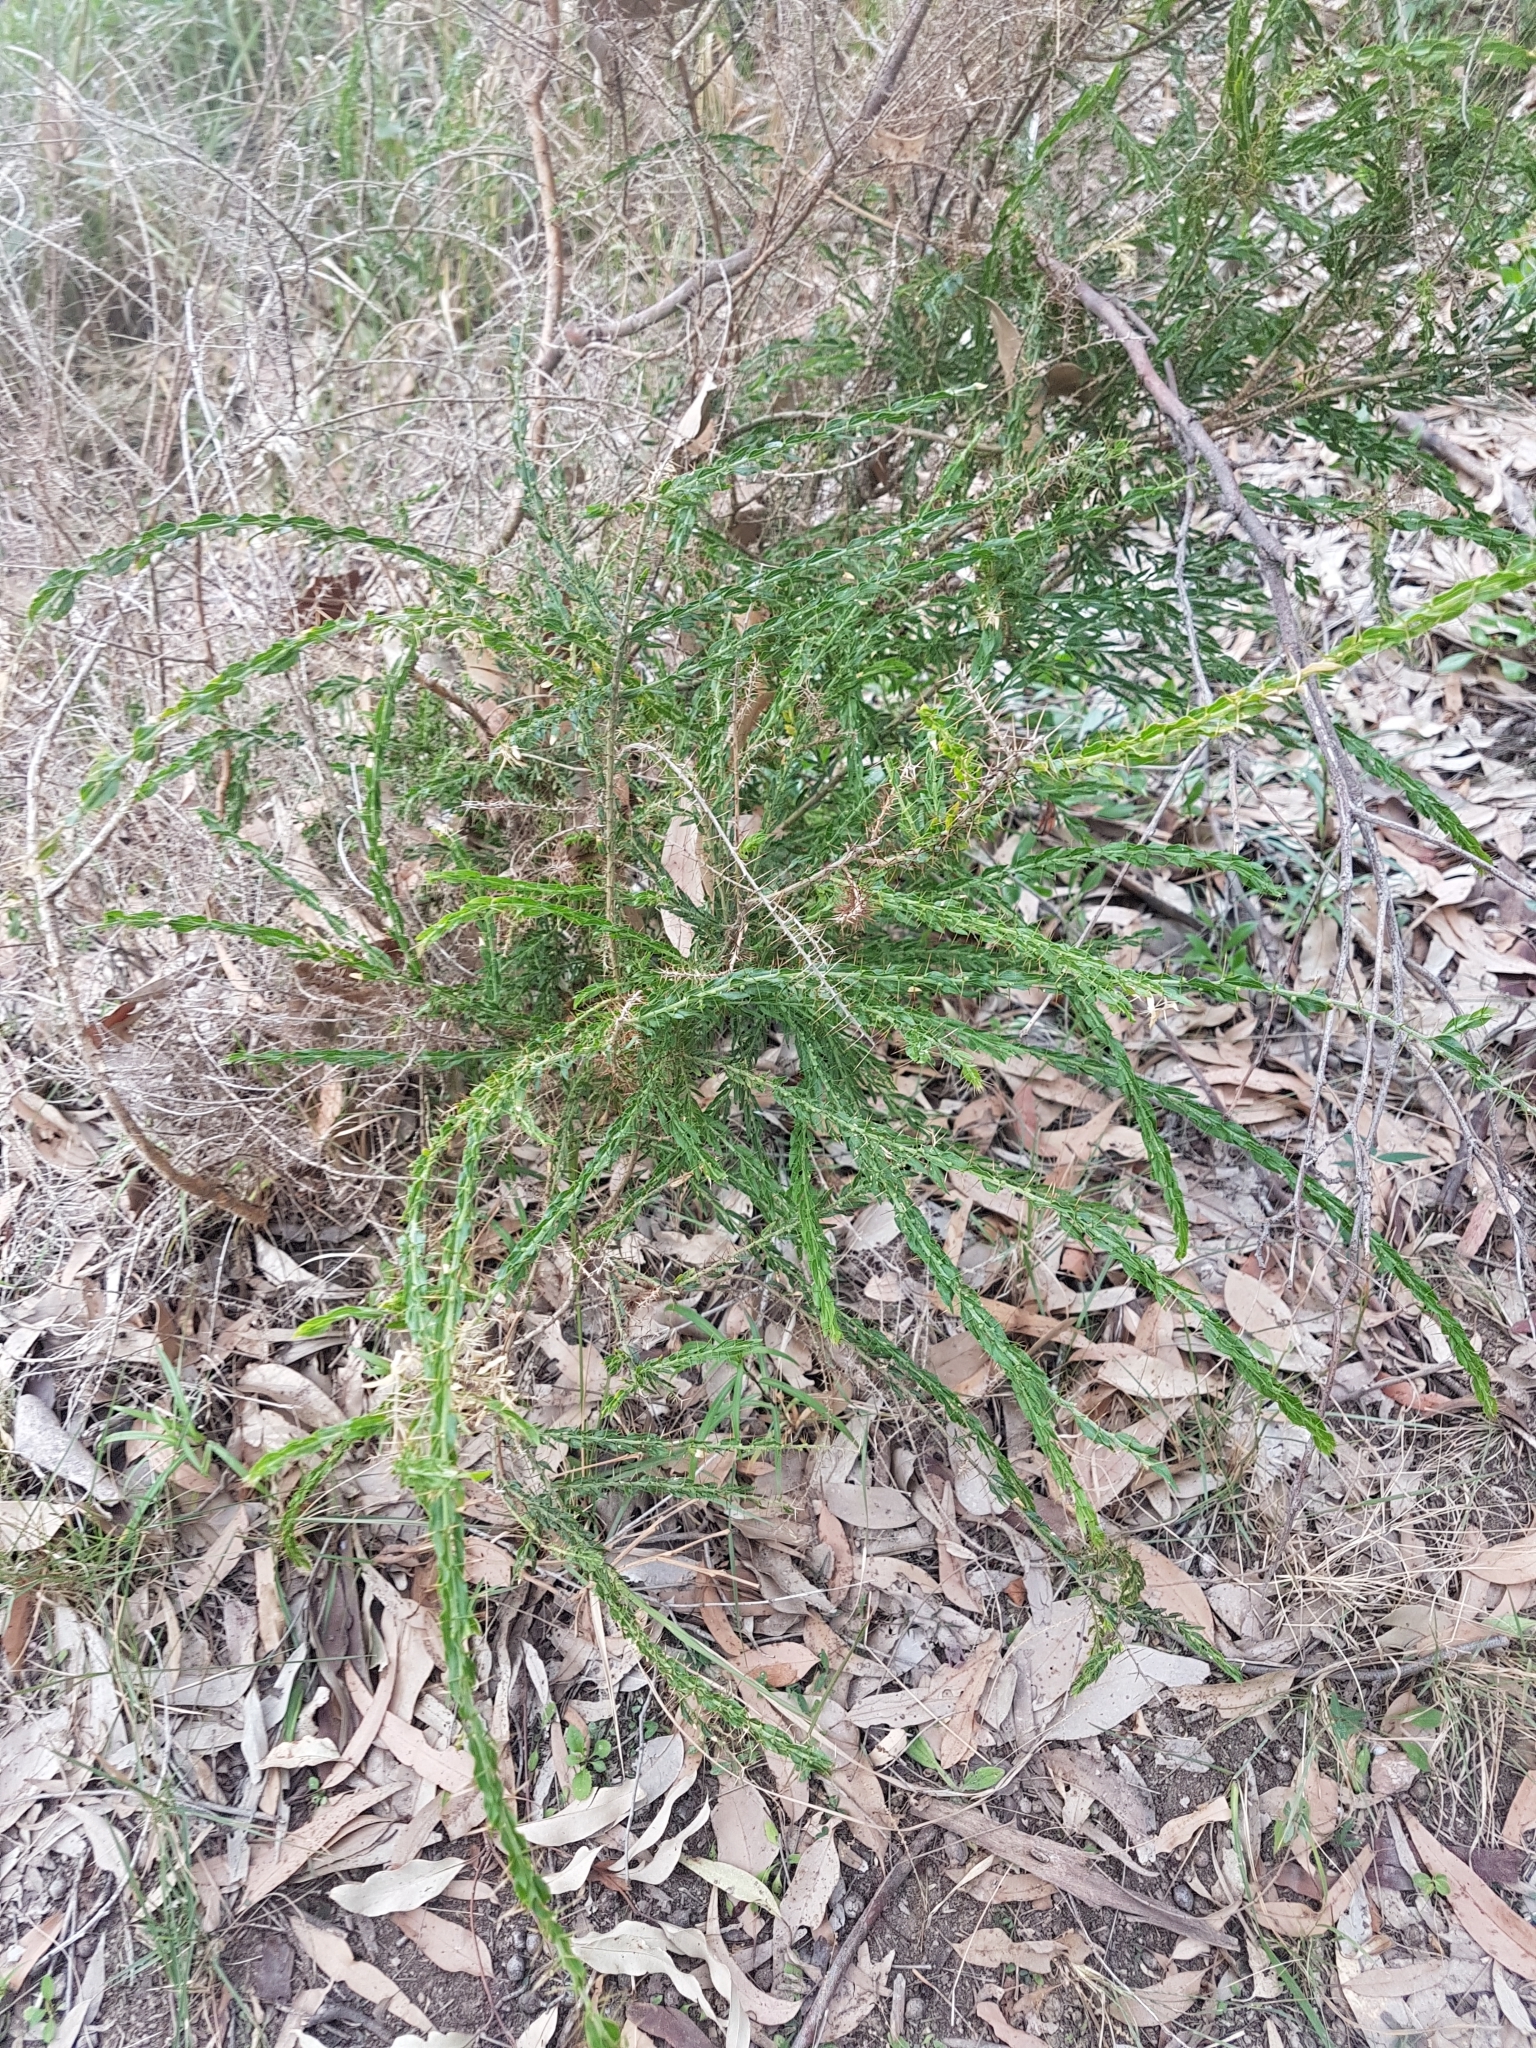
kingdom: Plantae
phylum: Tracheophyta
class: Magnoliopsida
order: Fabales
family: Fabaceae
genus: Acacia
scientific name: Acacia paradoxa
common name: Paradox acacia
